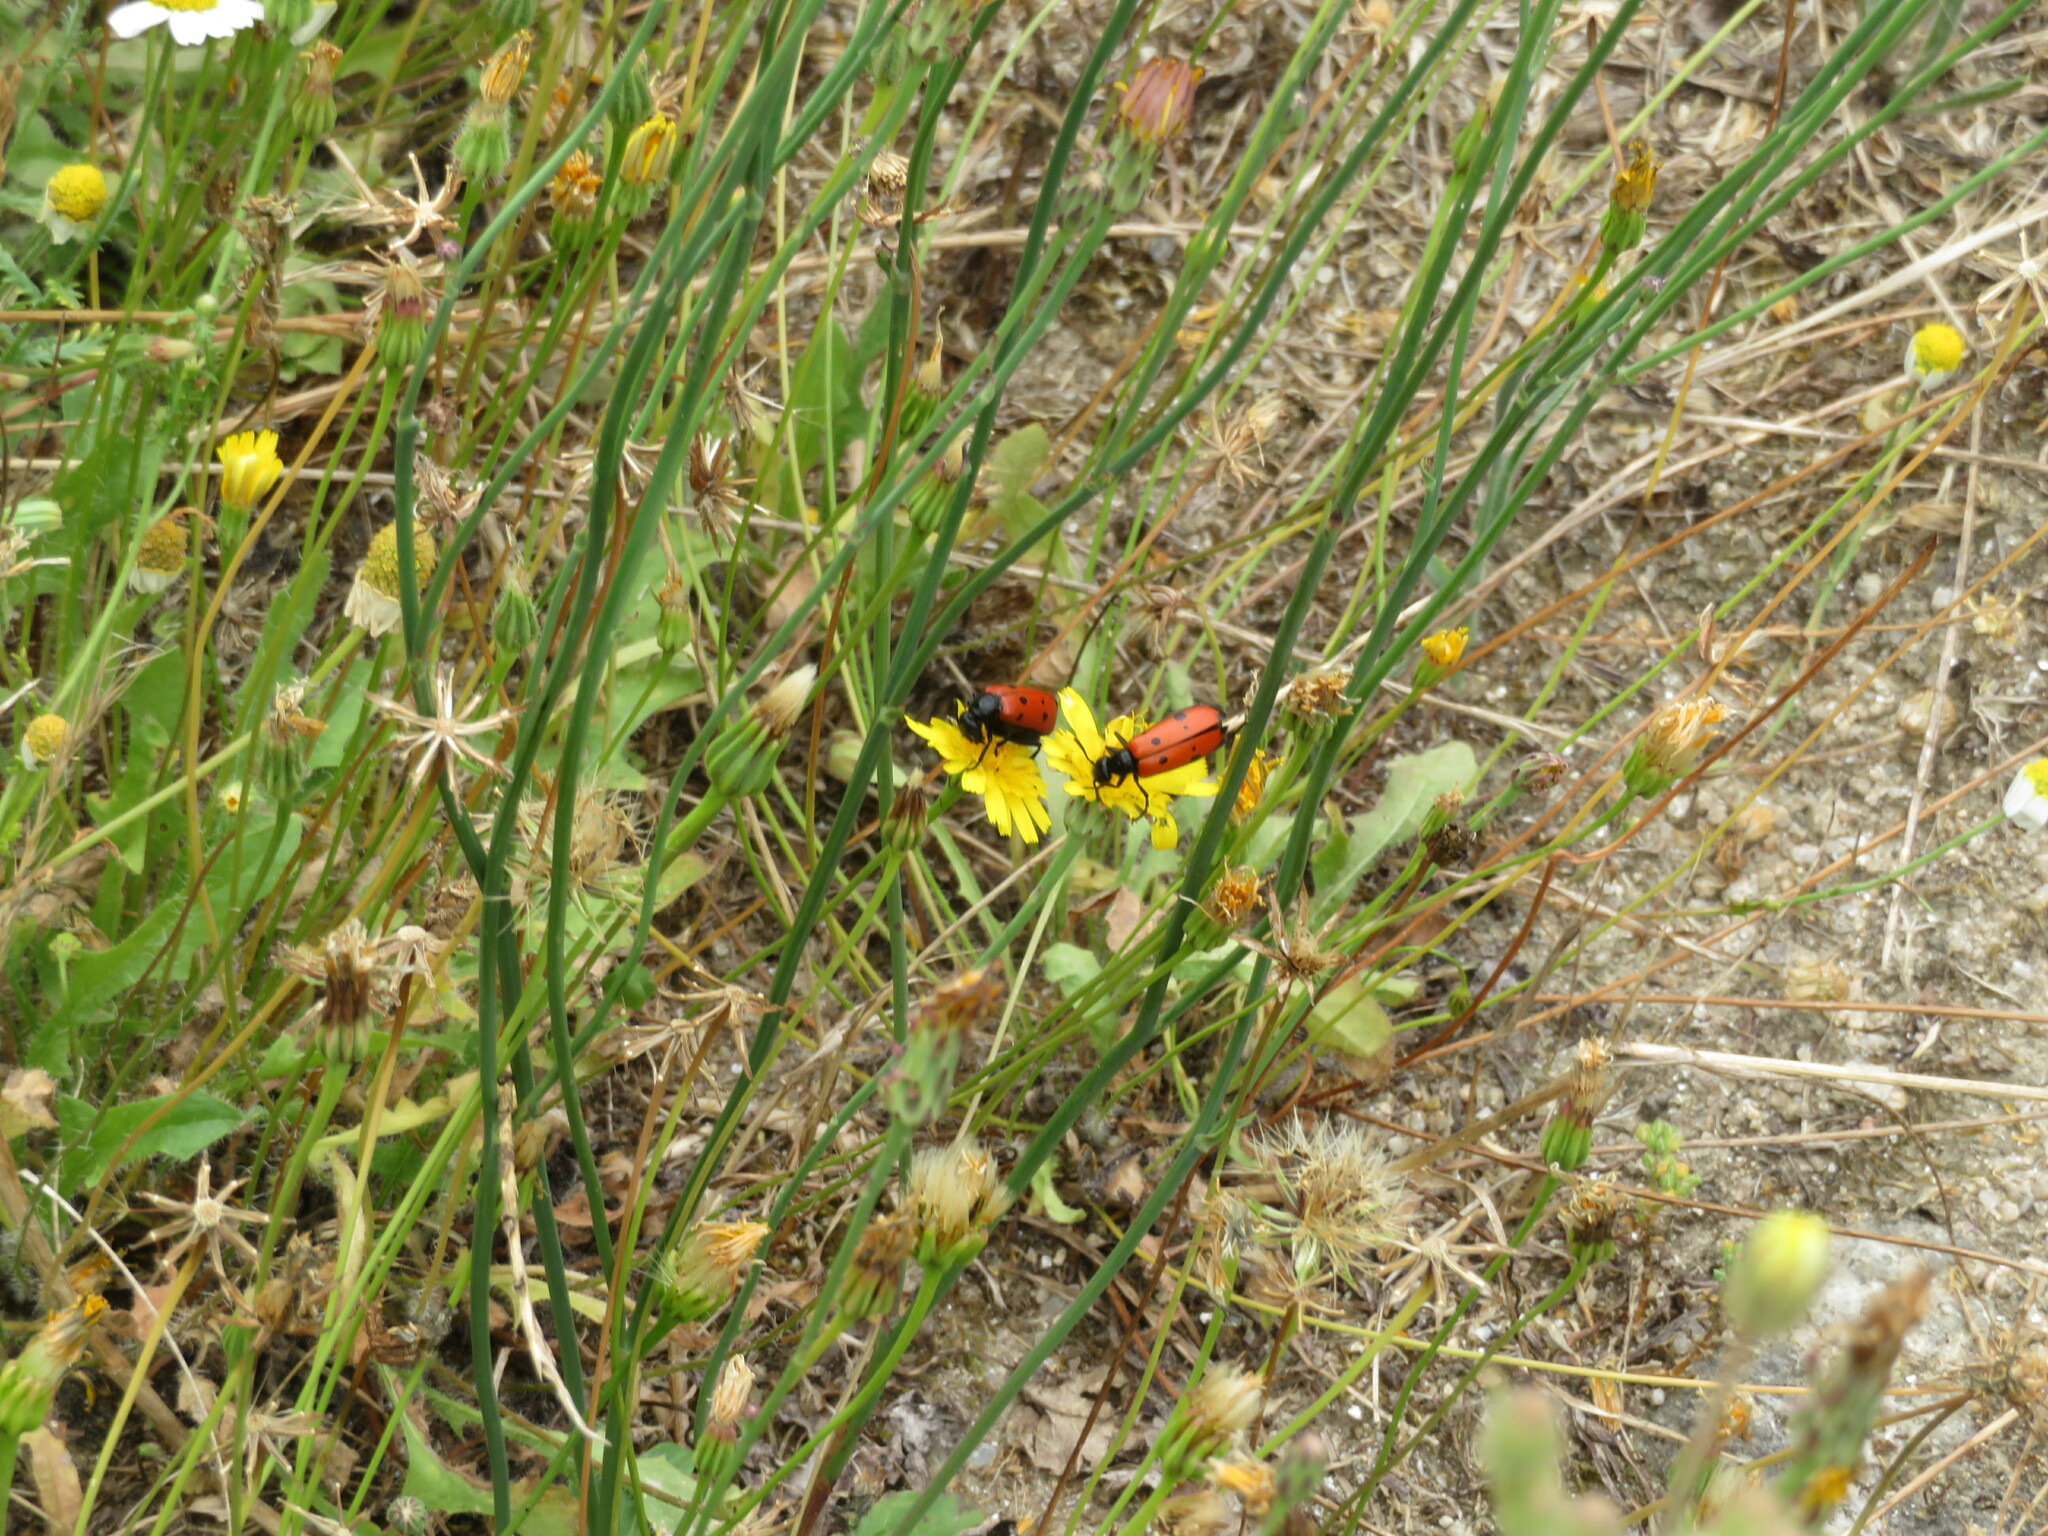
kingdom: Animalia
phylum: Arthropoda
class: Insecta
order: Coleoptera
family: Meloidae
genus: Mylabris
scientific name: Mylabris quadripunctata
